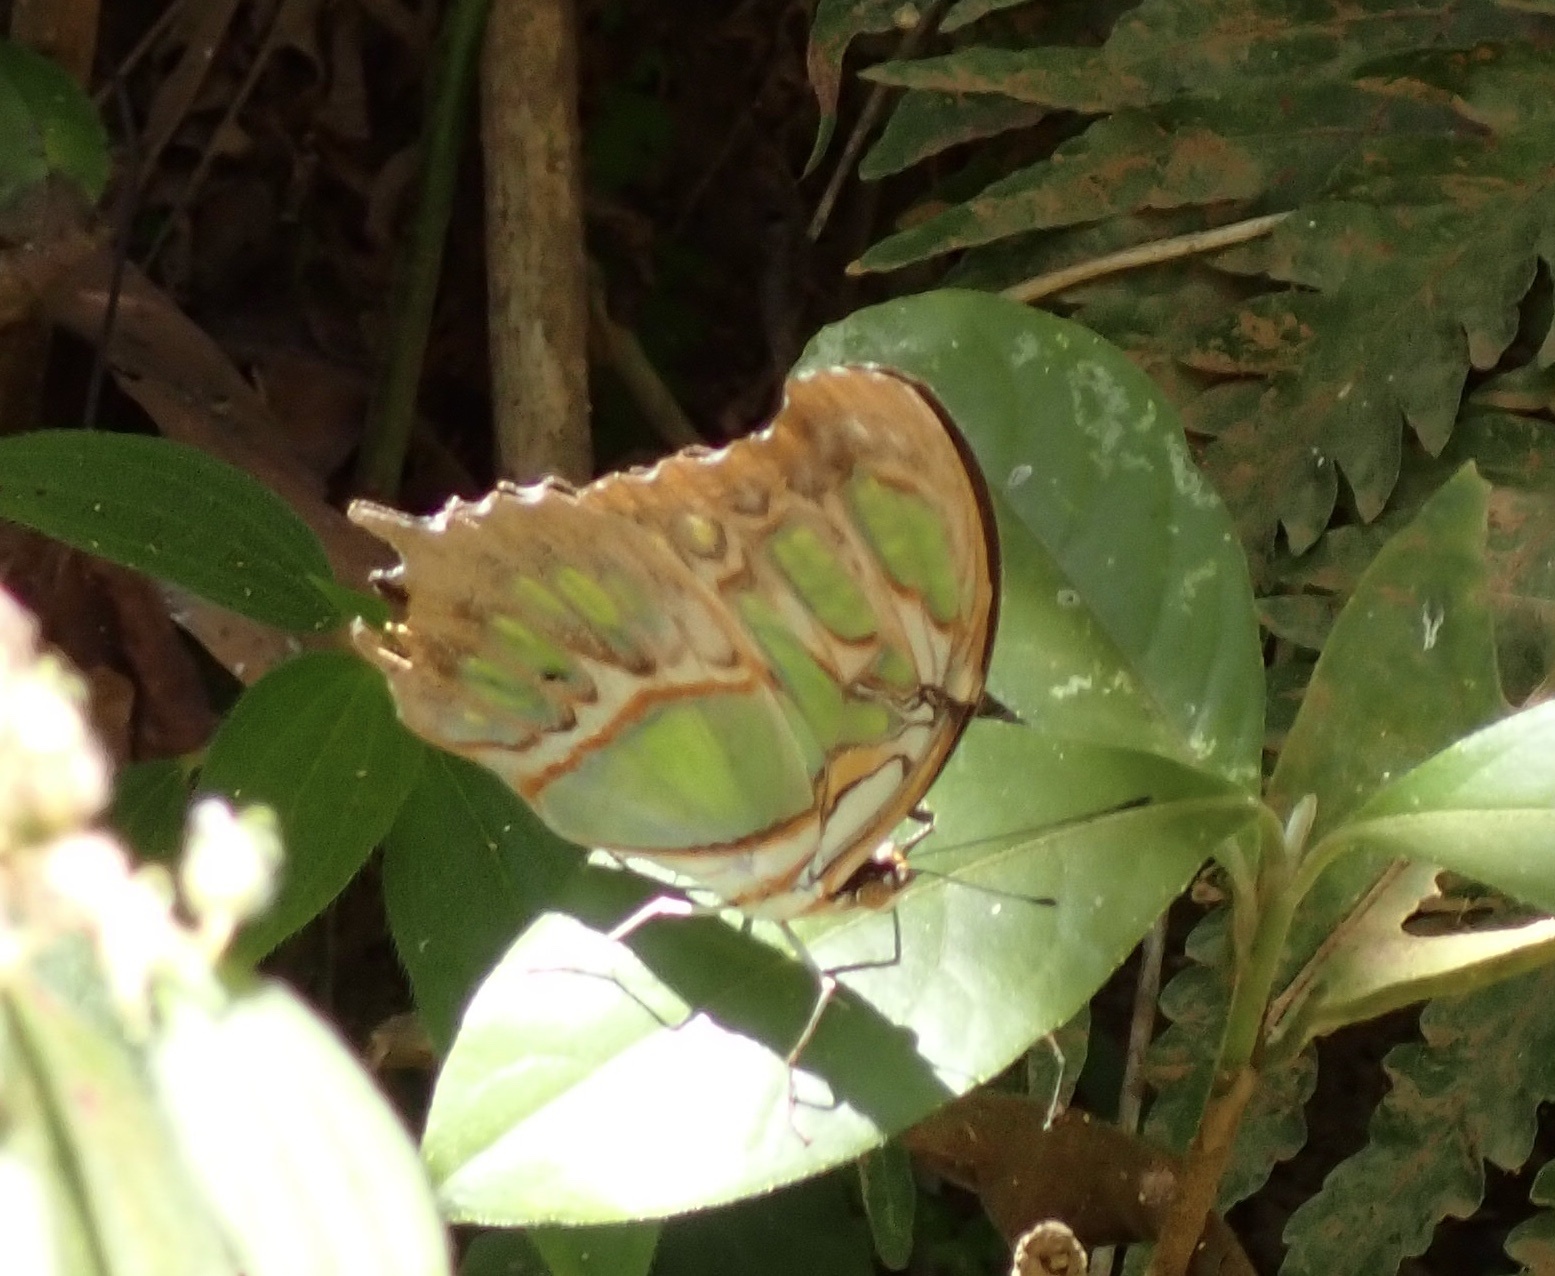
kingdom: Animalia
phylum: Arthropoda
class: Insecta
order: Lepidoptera
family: Nymphalidae
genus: Siproeta
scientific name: Siproeta stelenes
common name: Malachite
